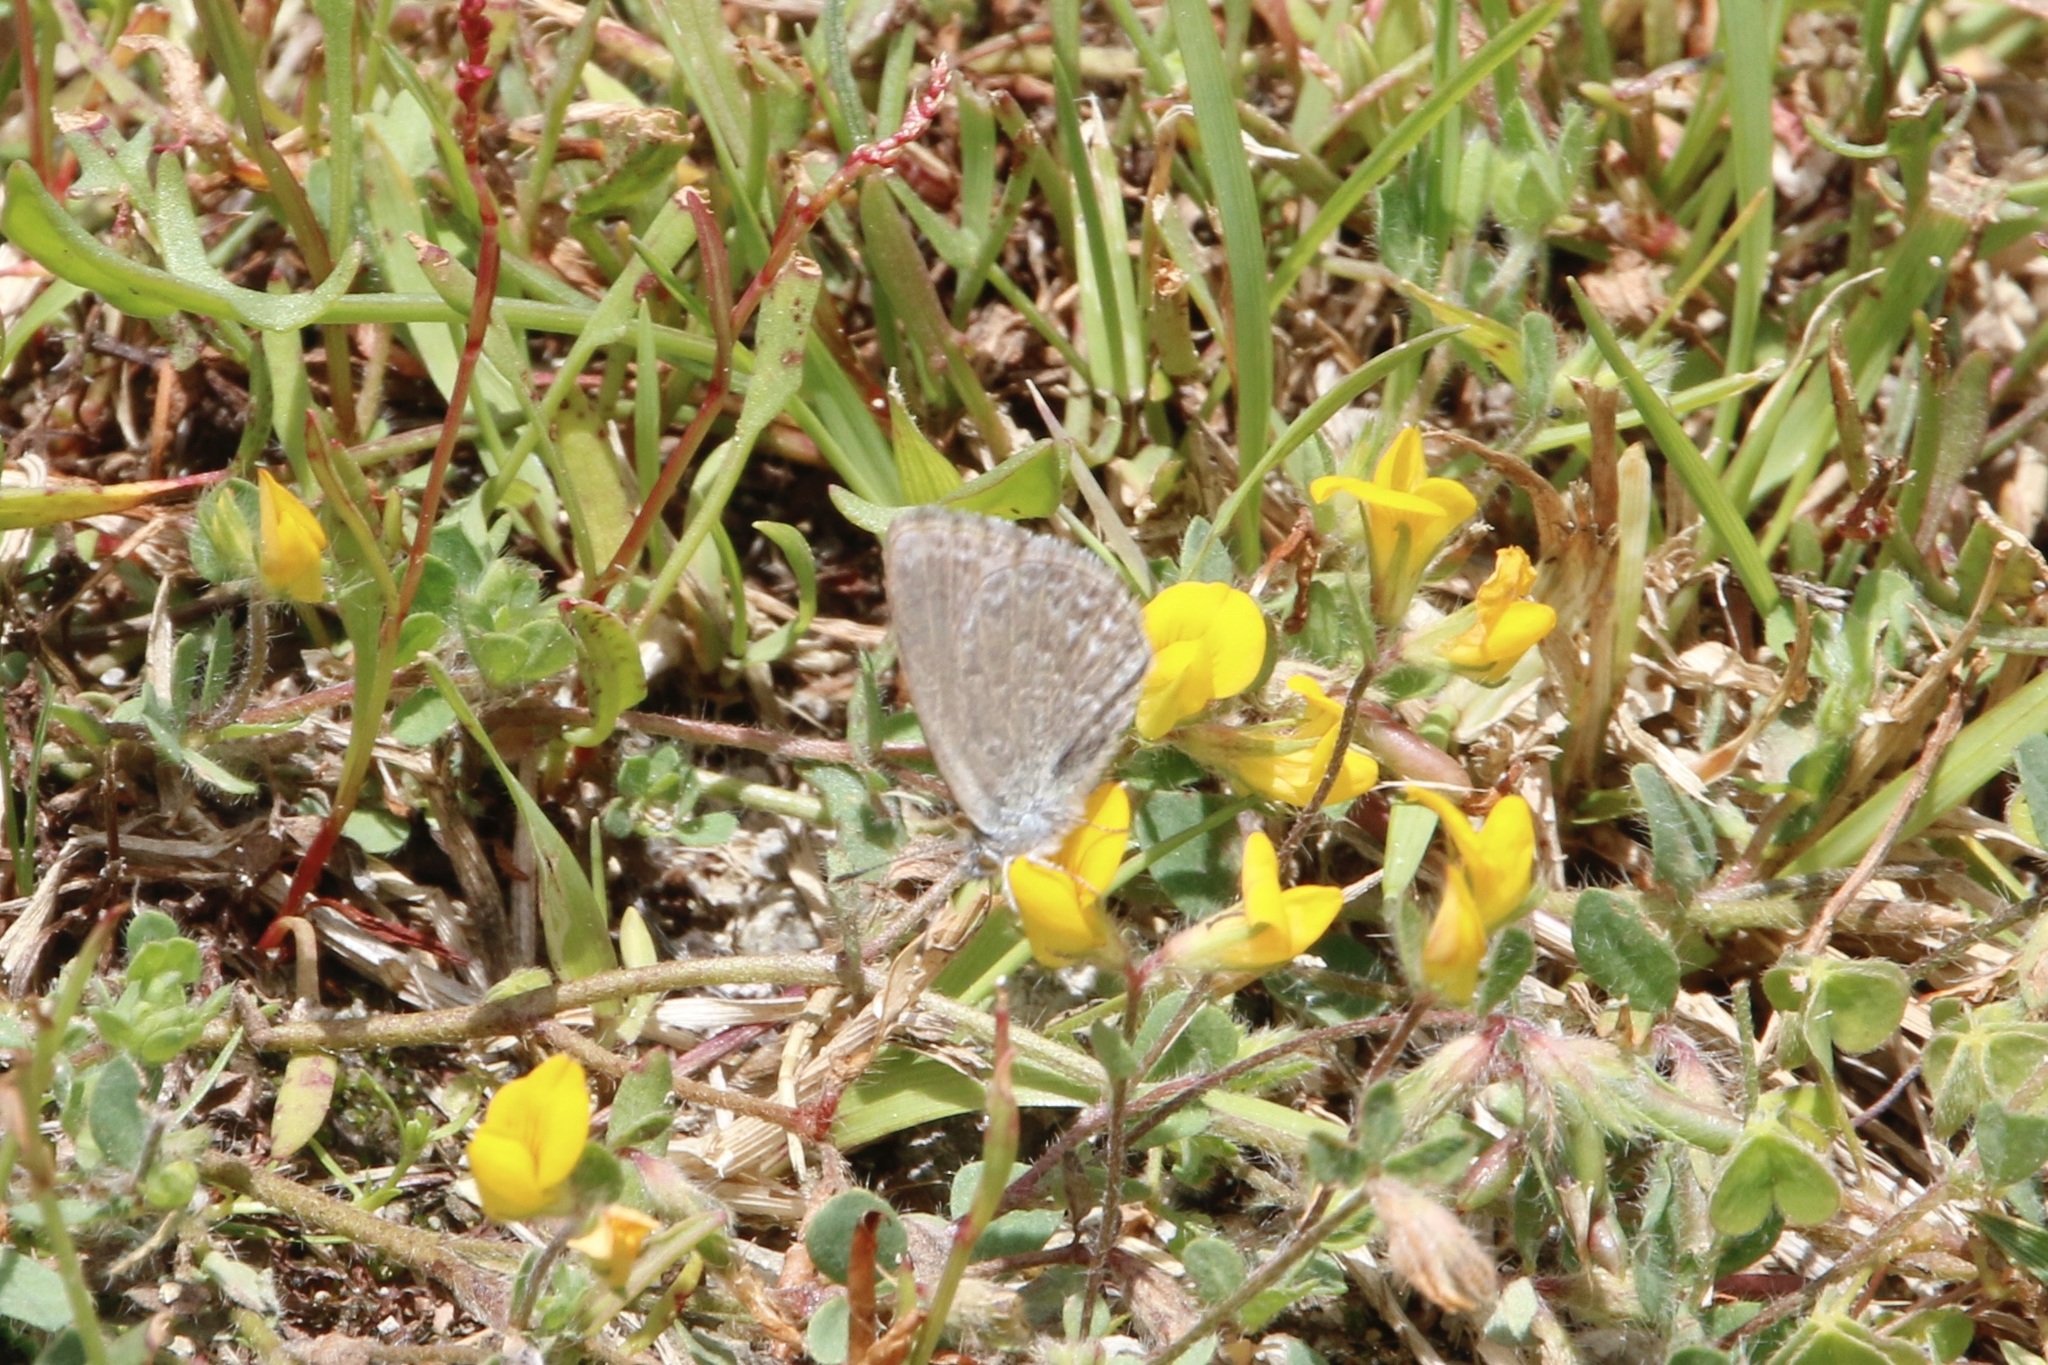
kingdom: Animalia
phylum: Arthropoda
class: Insecta
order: Lepidoptera
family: Lycaenidae
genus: Zizina
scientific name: Zizina labradus
